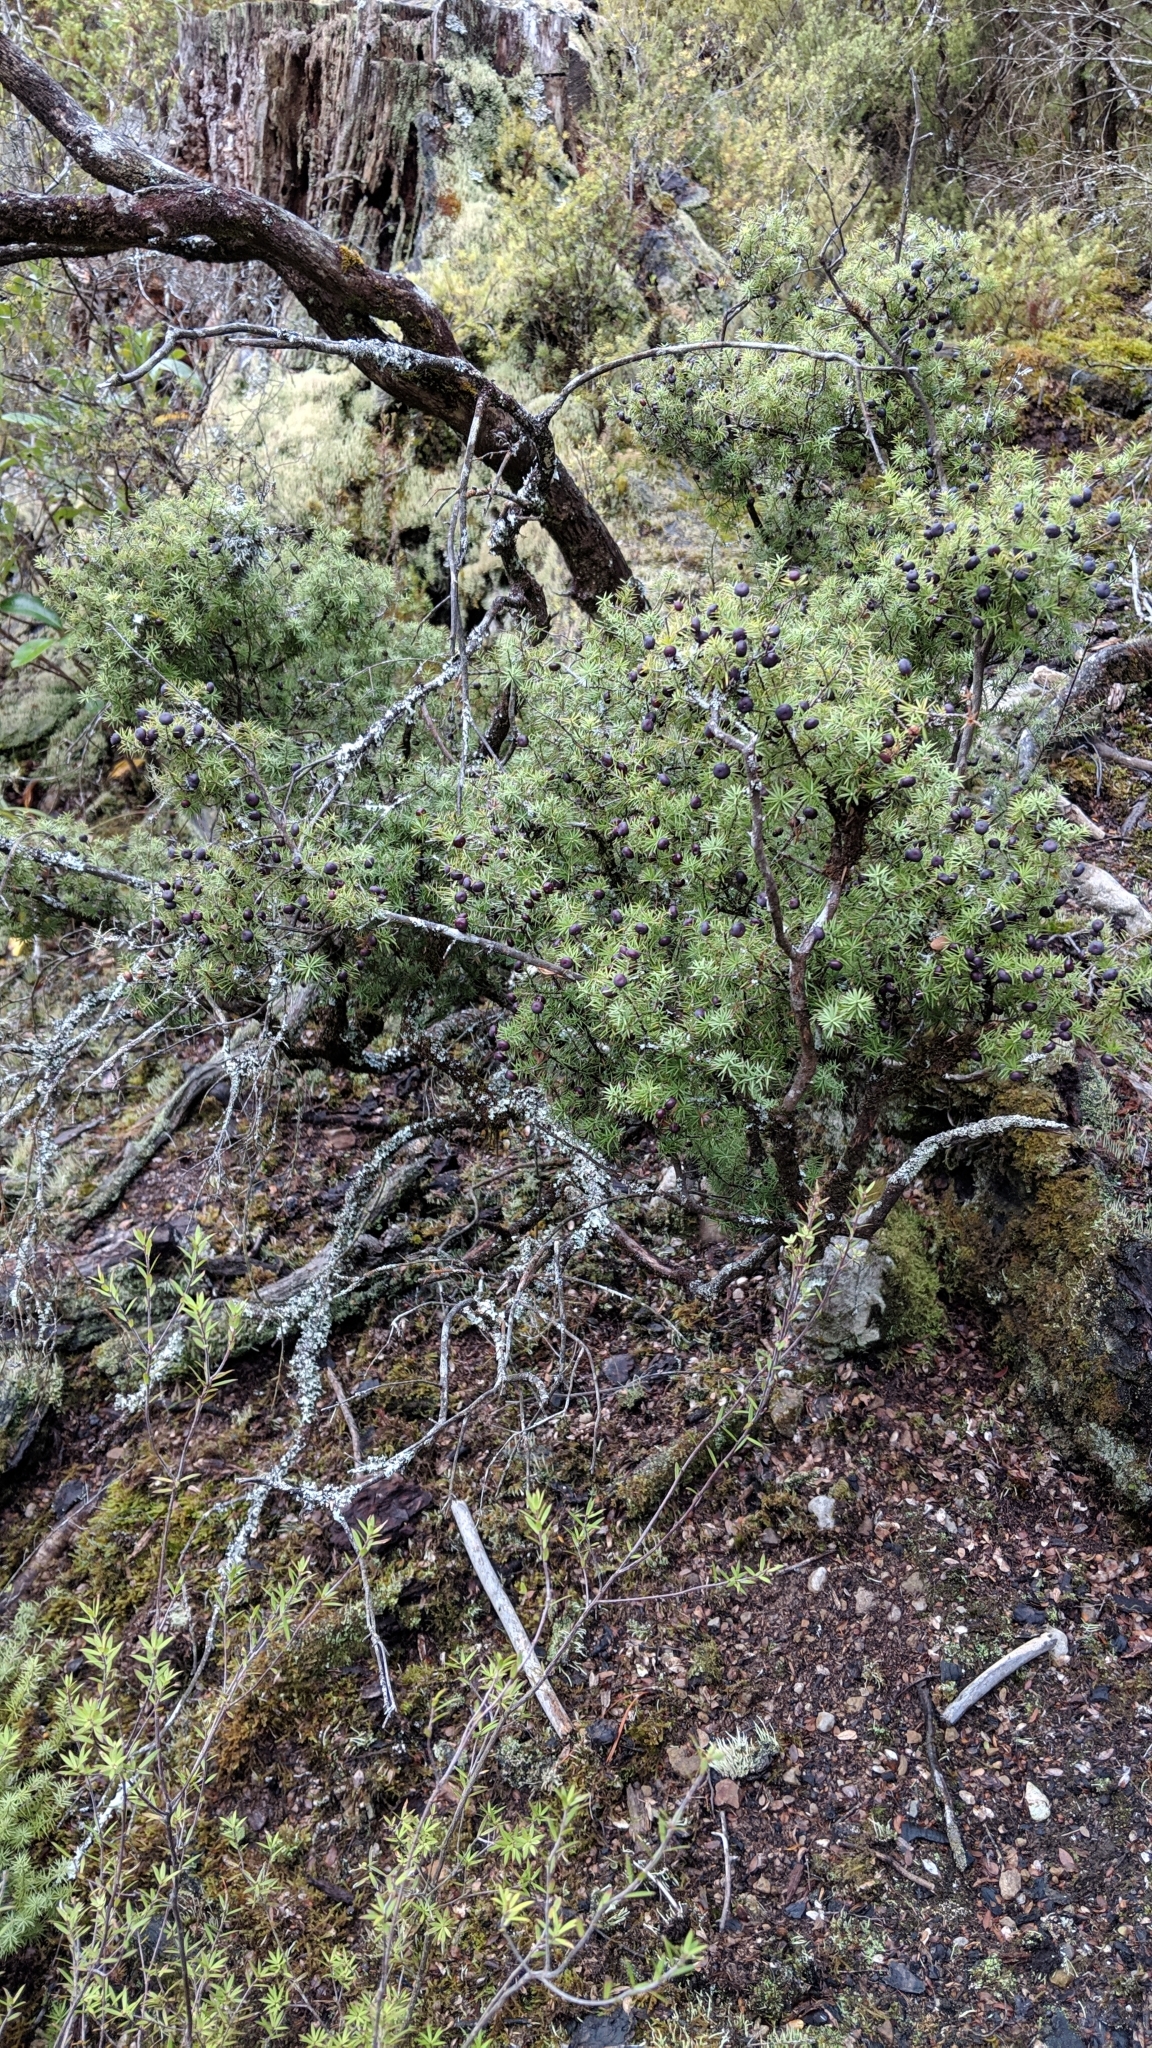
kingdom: Plantae
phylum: Tracheophyta
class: Magnoliopsida
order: Ericales
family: Ericaceae
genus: Leptecophylla
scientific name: Leptecophylla juniperina
